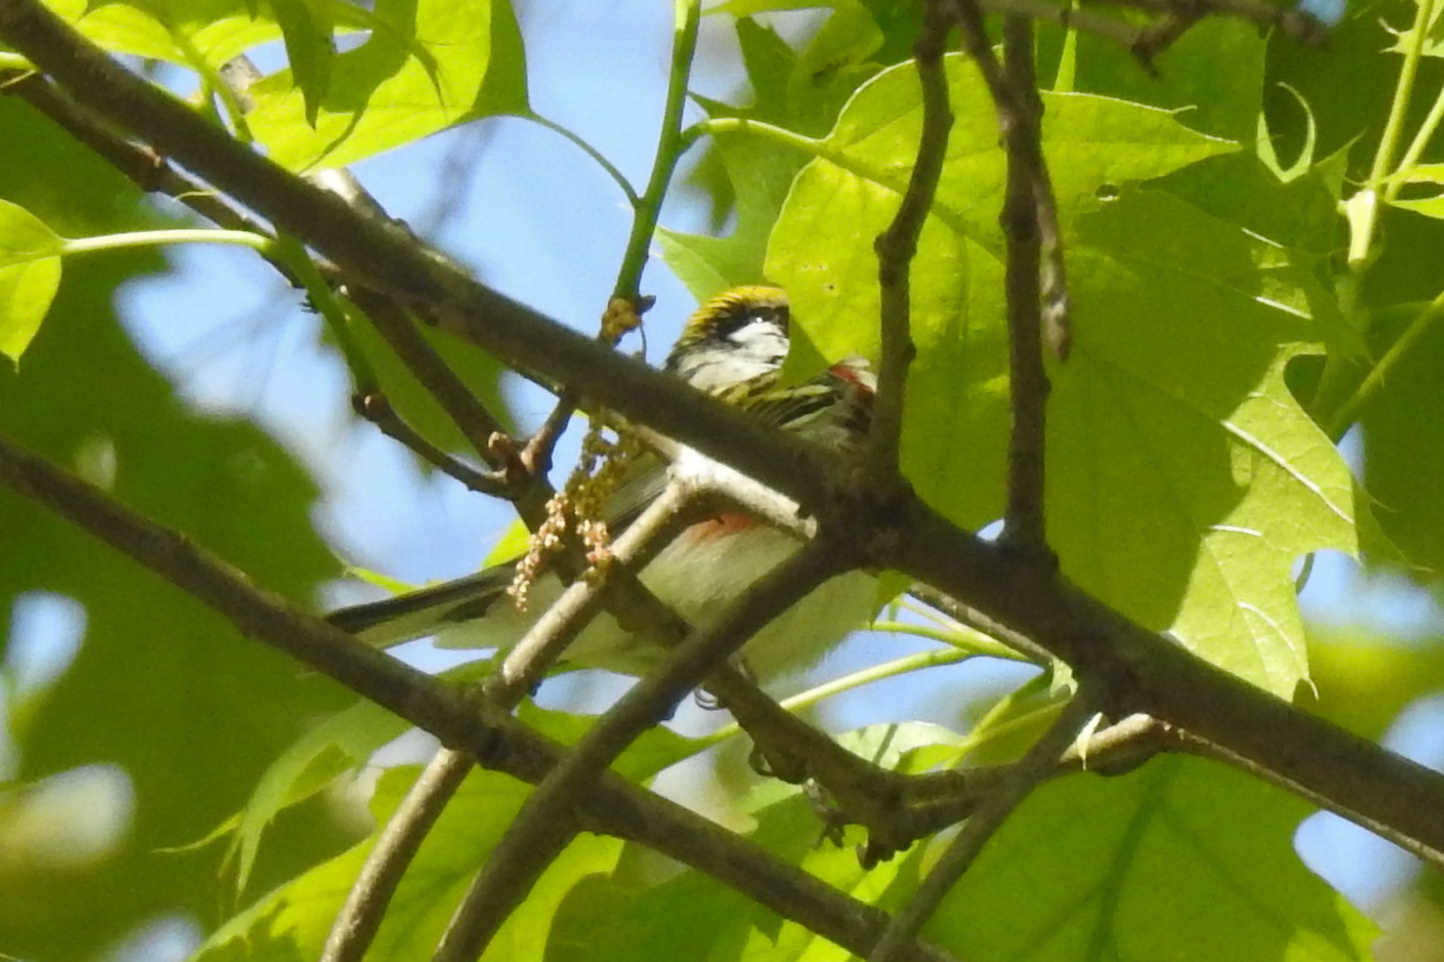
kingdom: Animalia
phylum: Chordata
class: Aves
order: Passeriformes
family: Parulidae
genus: Setophaga
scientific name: Setophaga pensylvanica
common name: Chestnut-sided warbler
